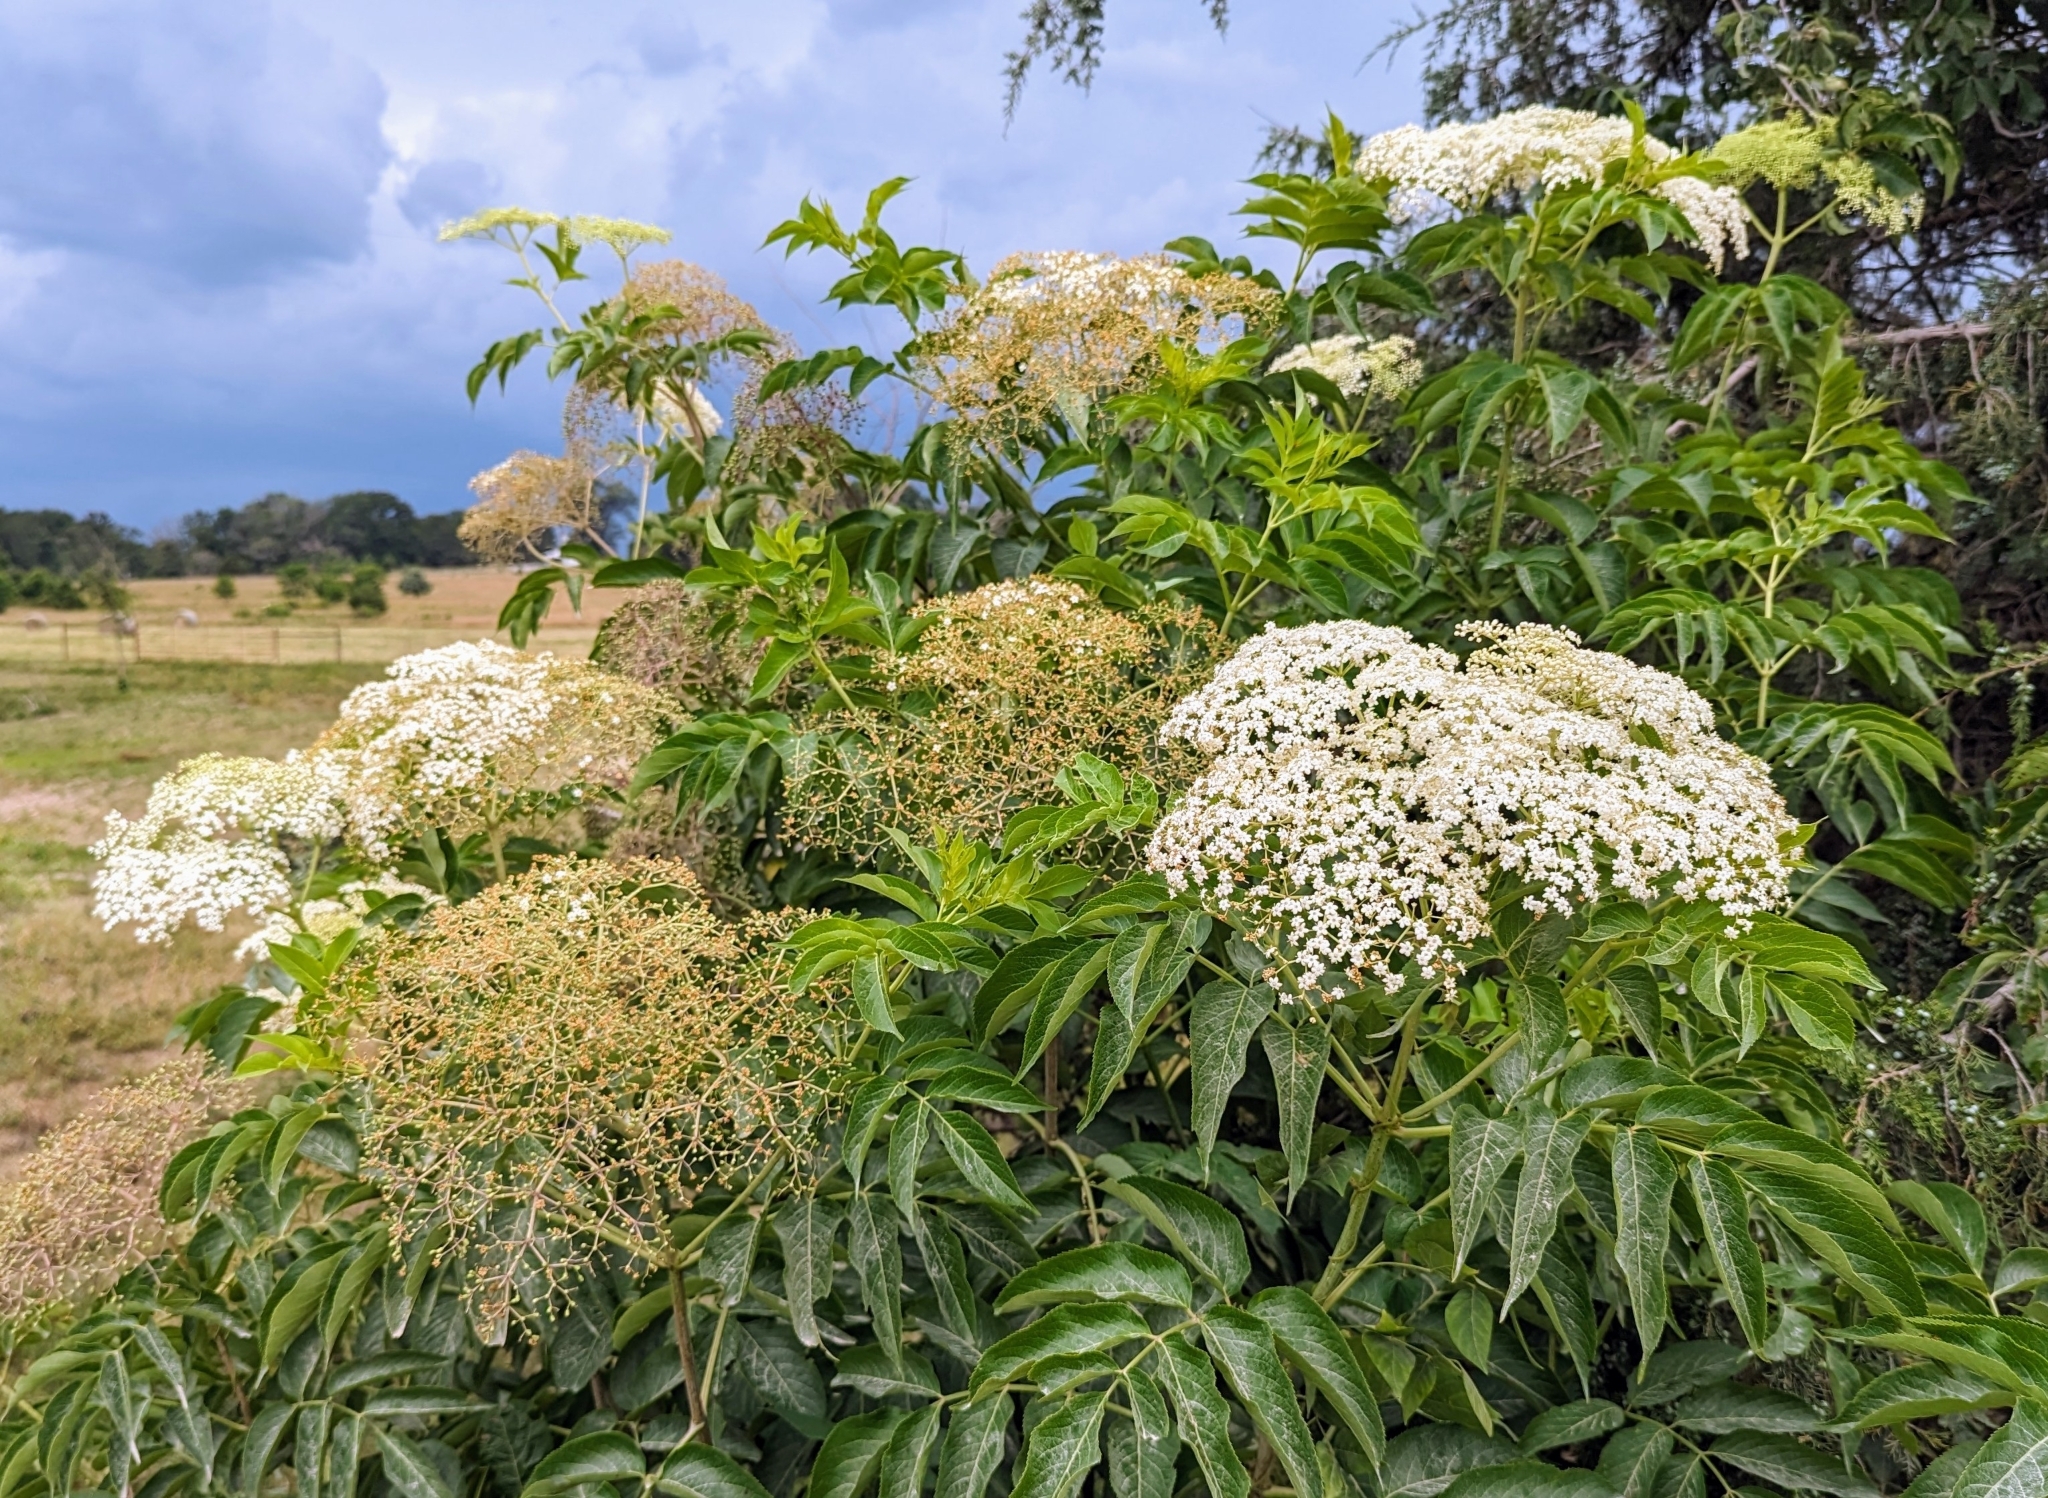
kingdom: Plantae
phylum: Tracheophyta
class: Magnoliopsida
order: Dipsacales
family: Viburnaceae
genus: Sambucus
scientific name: Sambucus canadensis
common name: American elder
